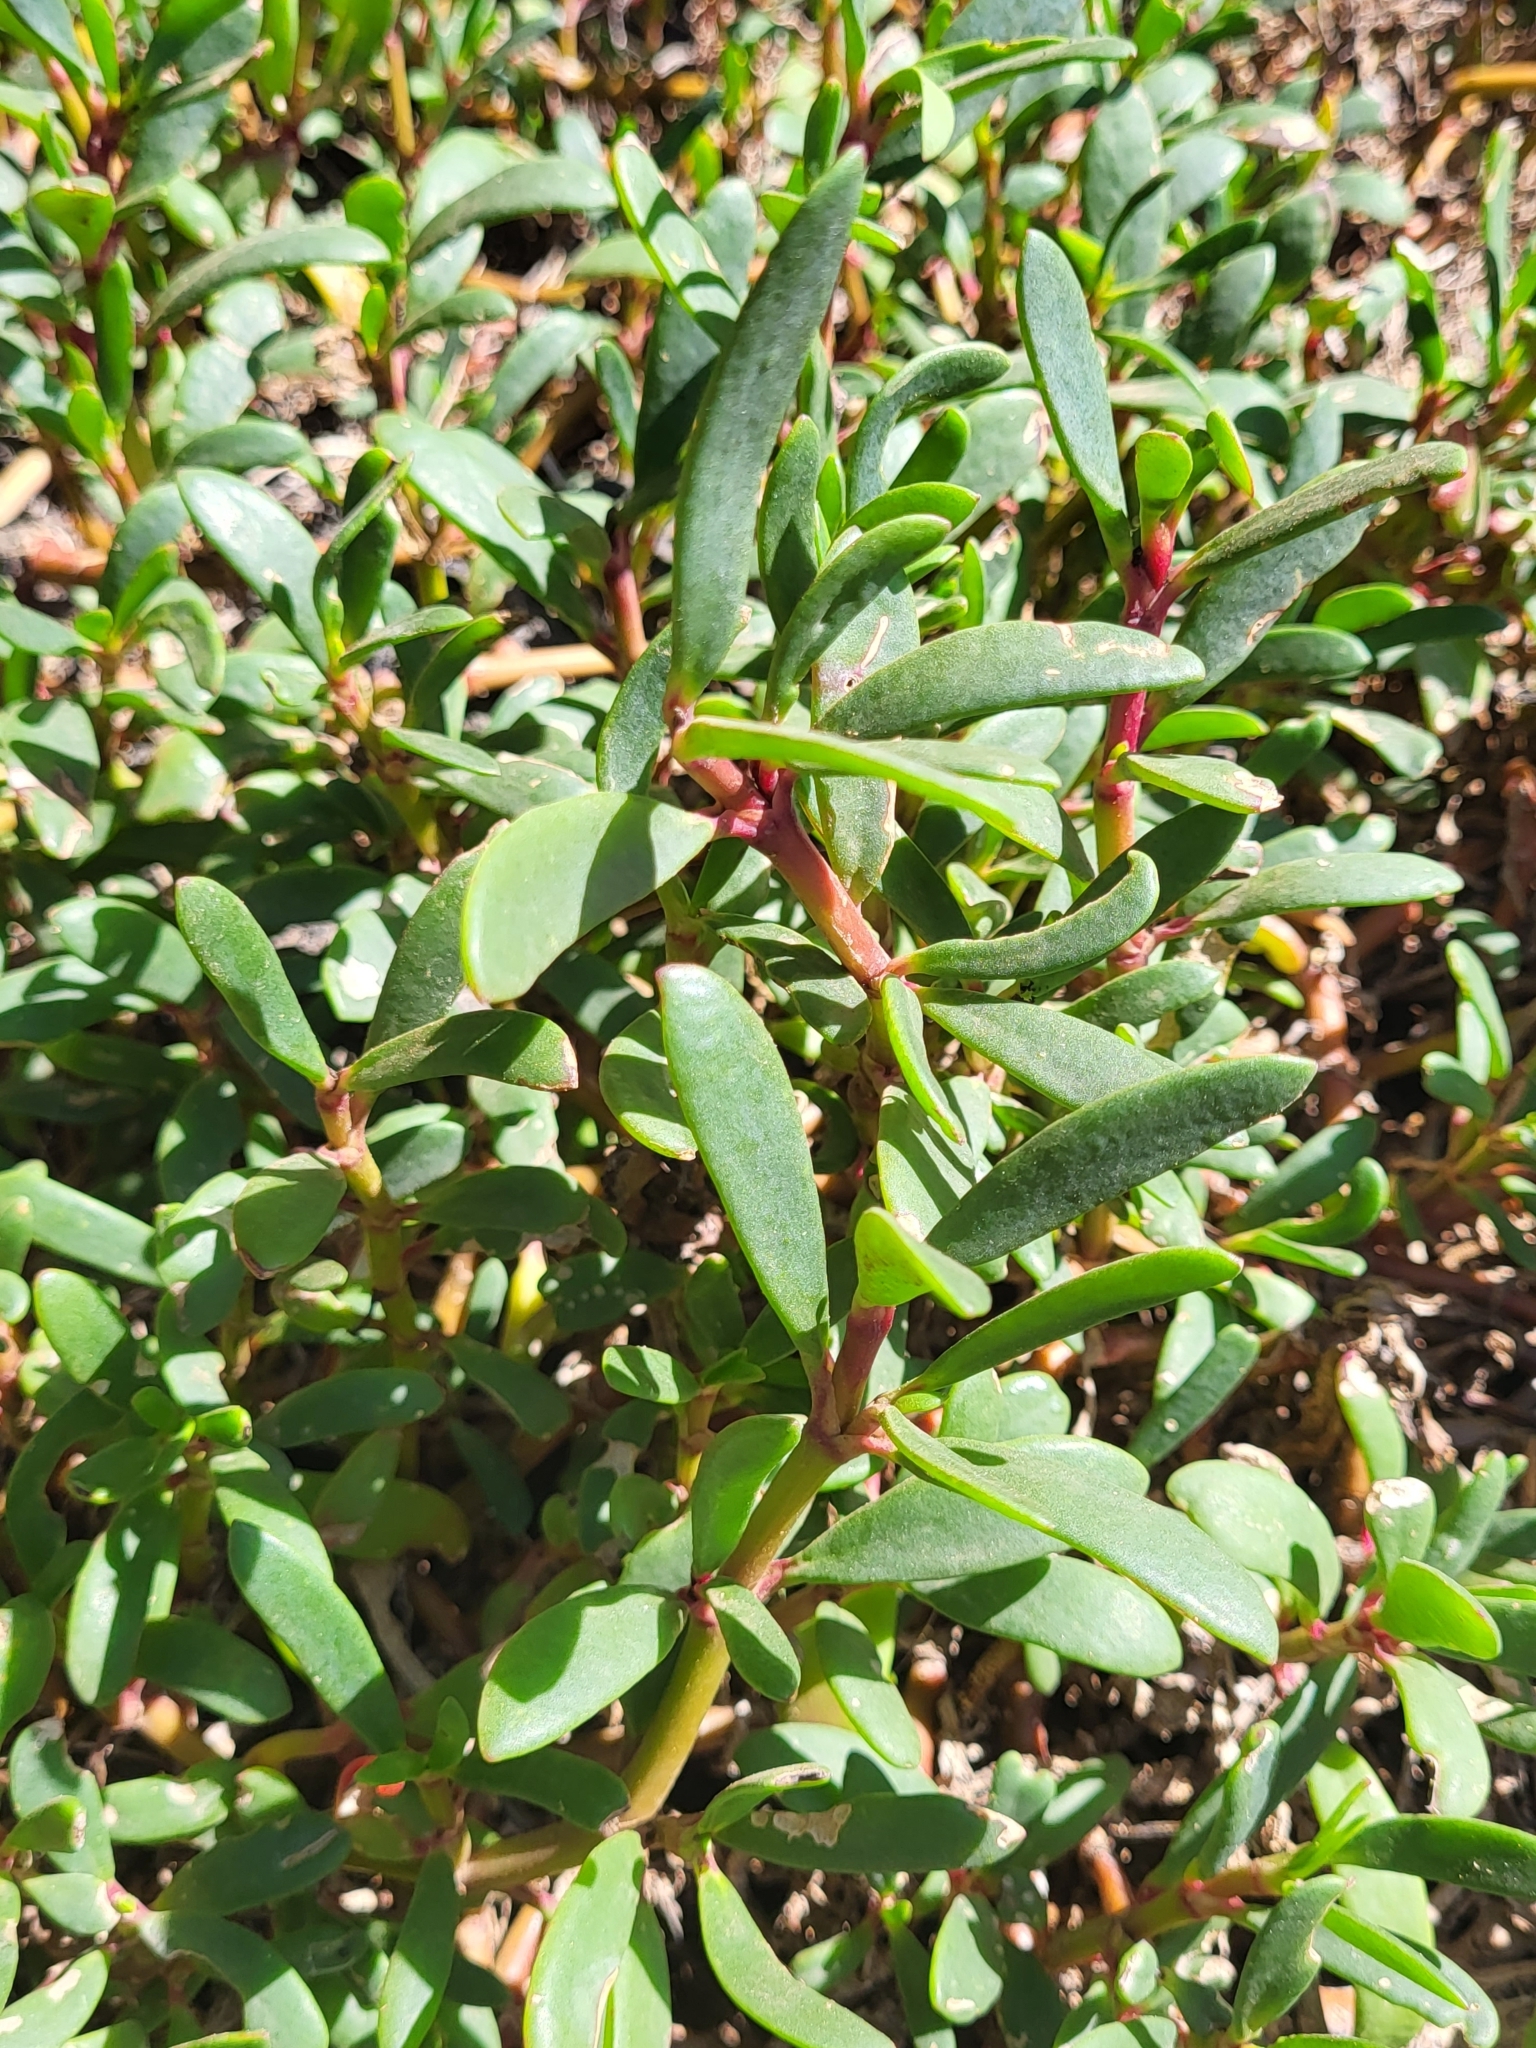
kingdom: Plantae
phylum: Tracheophyta
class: Magnoliopsida
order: Caryophyllales
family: Portulacaceae
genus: Portulaca
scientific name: Portulaca oleracea
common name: Common purslane
